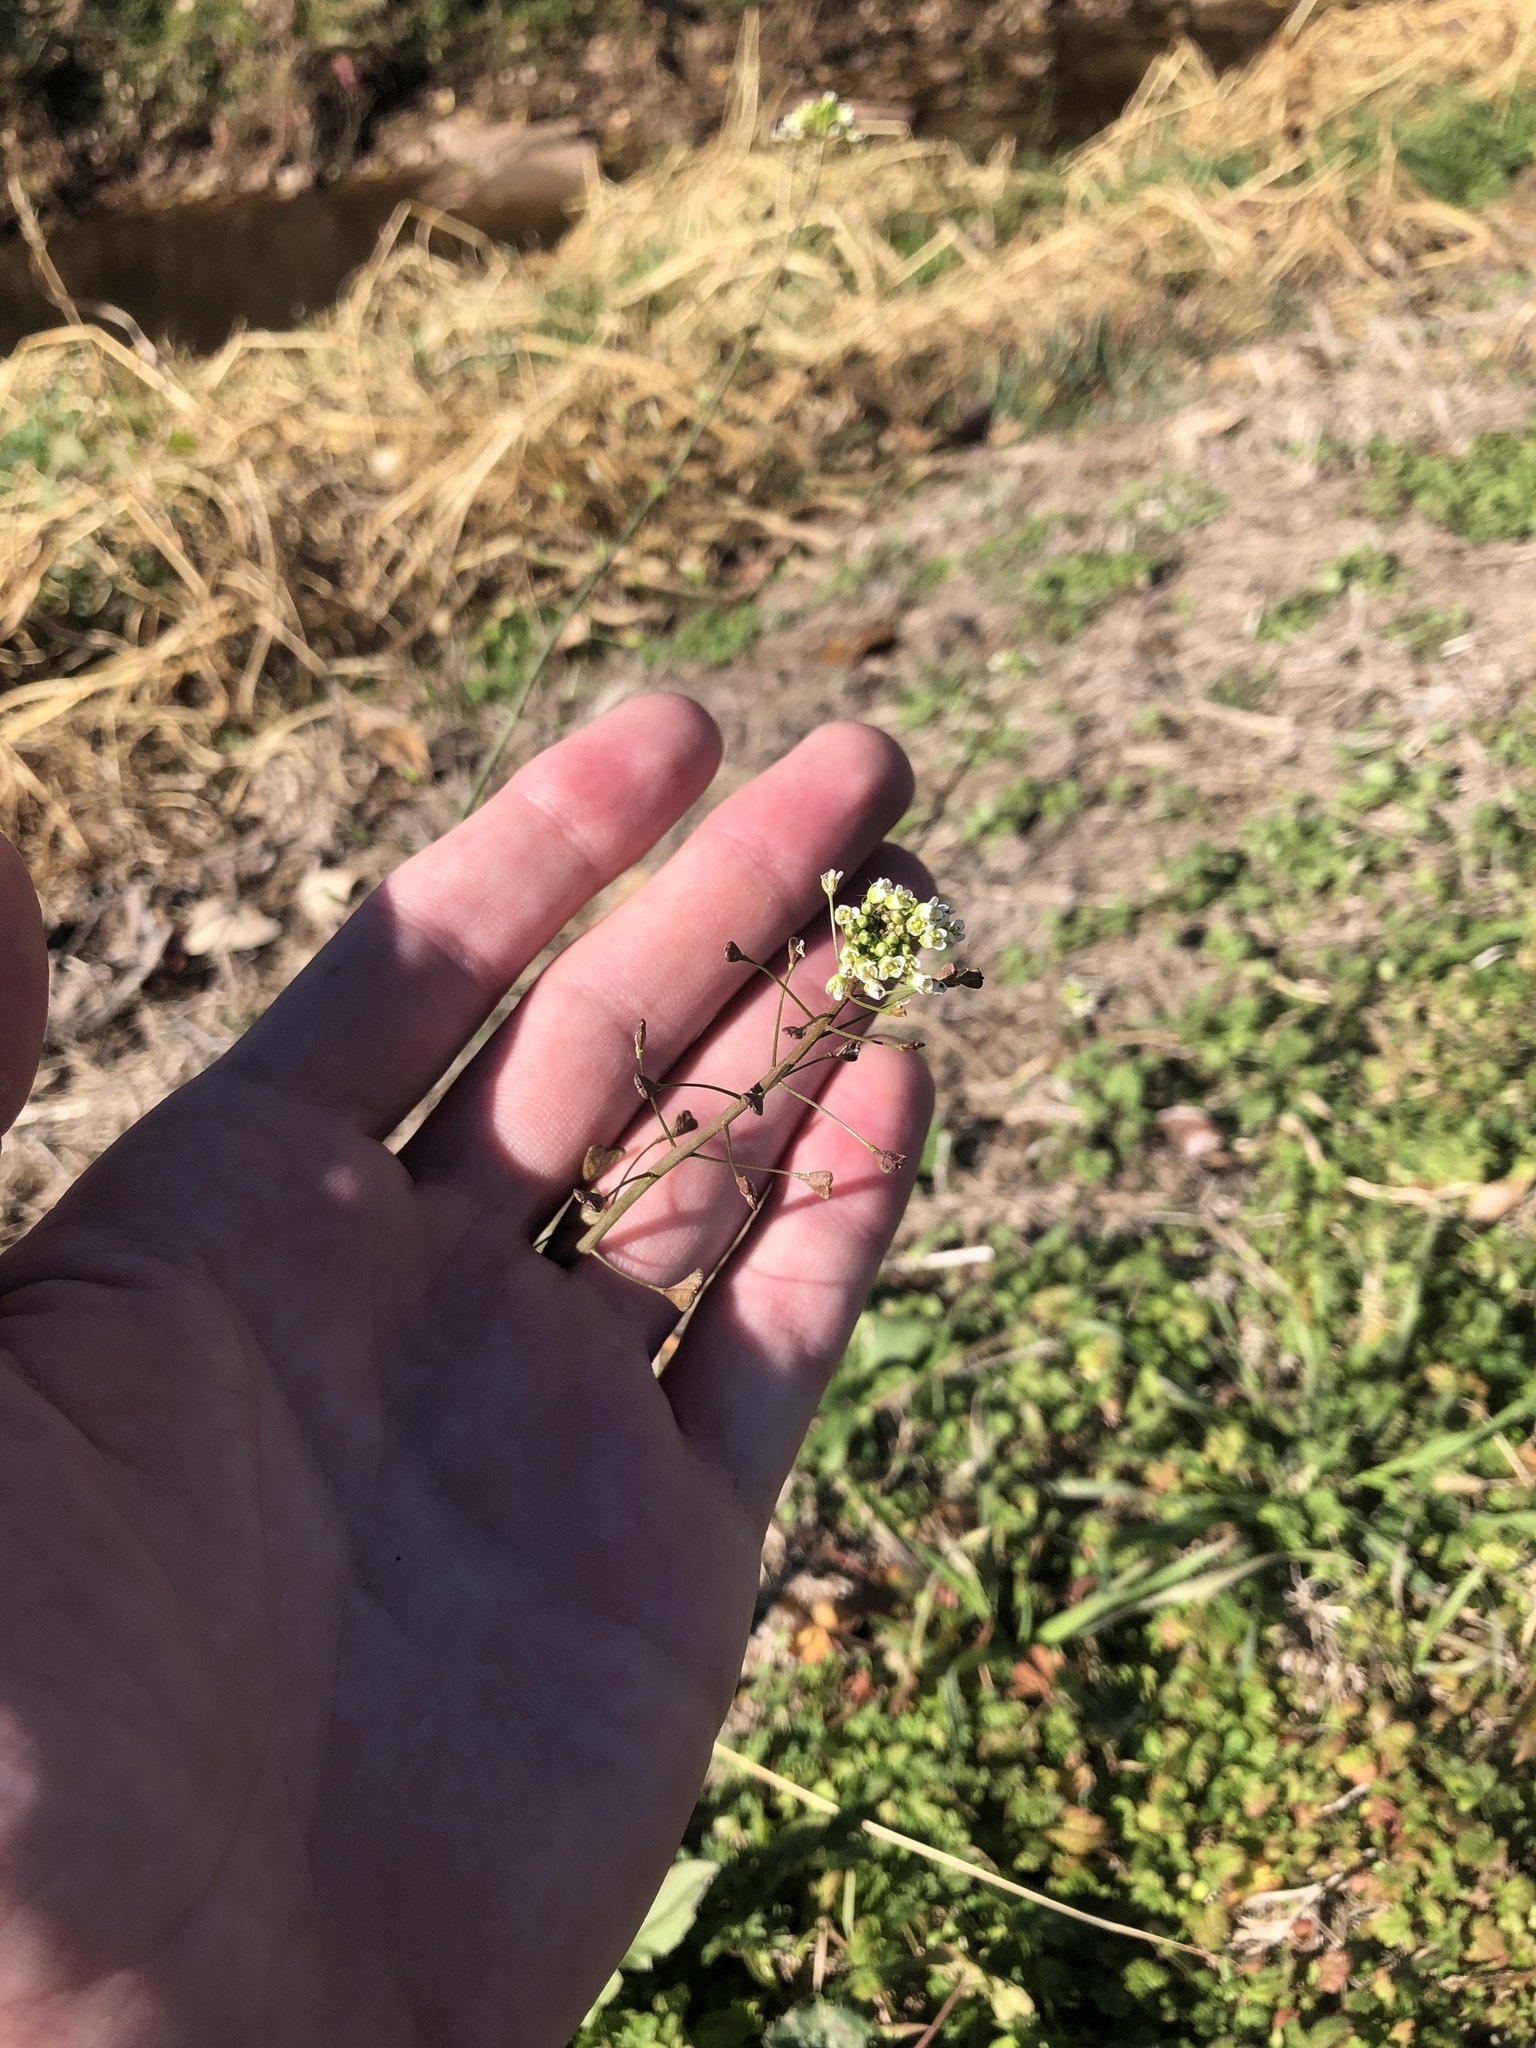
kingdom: Plantae
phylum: Tracheophyta
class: Magnoliopsida
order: Brassicales
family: Brassicaceae
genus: Capsella
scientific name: Capsella bursa-pastoris
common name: Shepherd's purse
